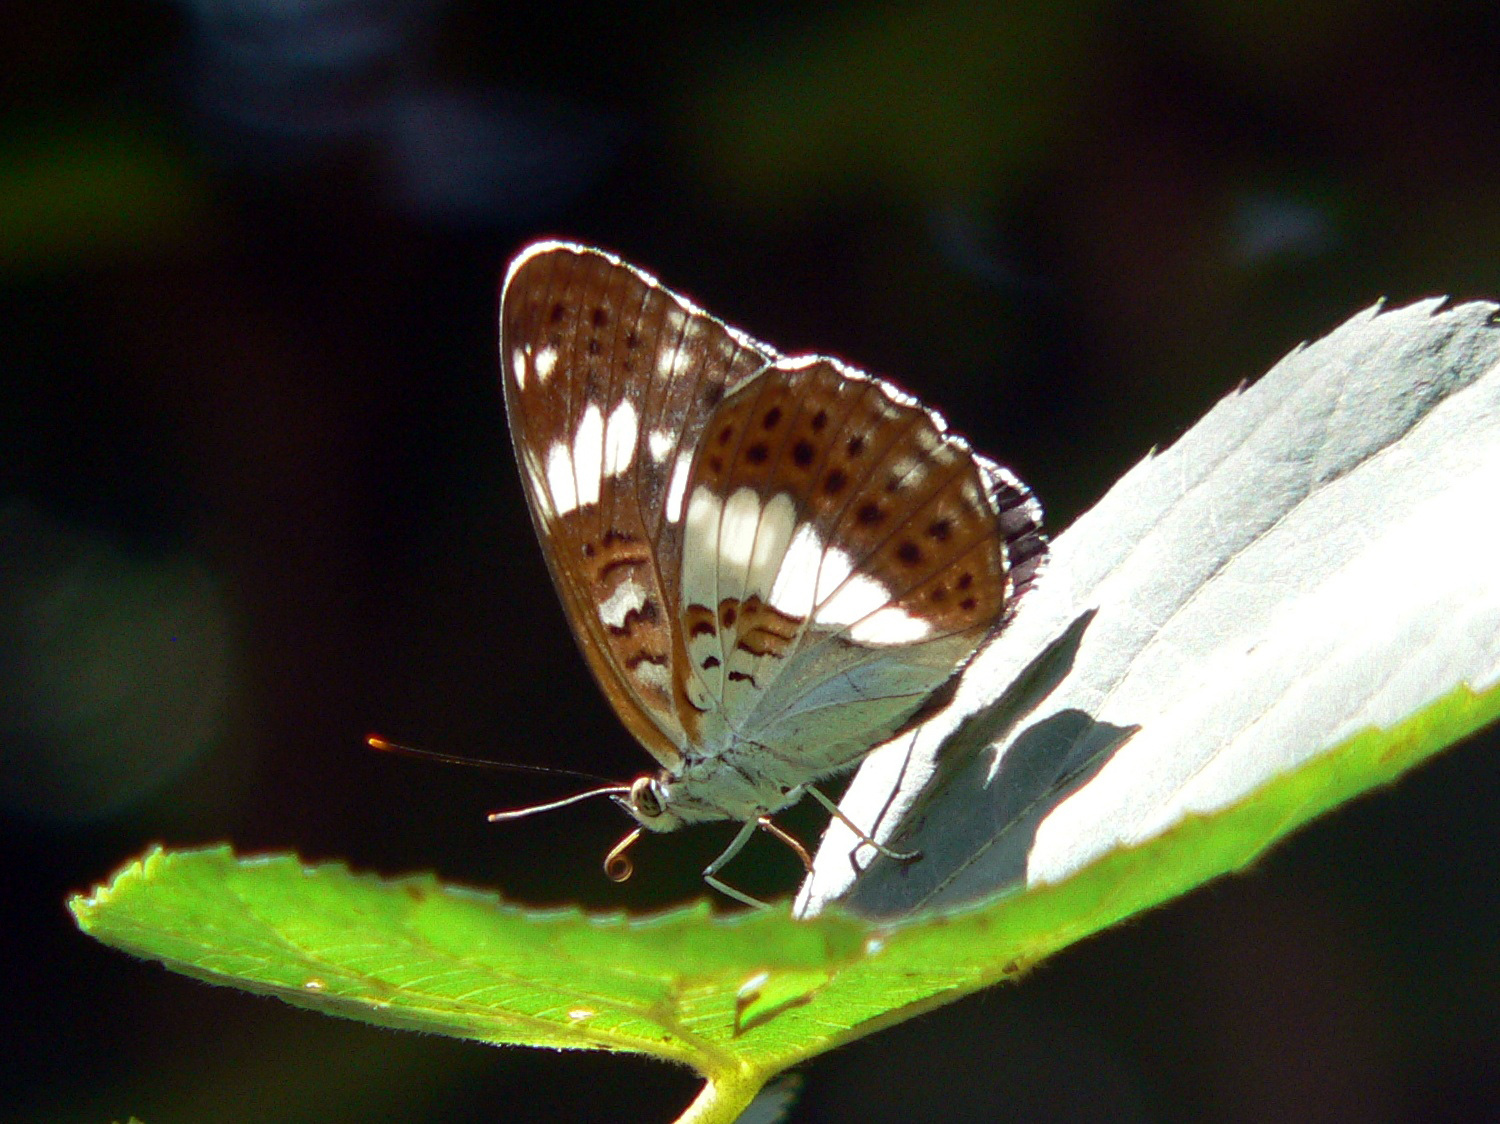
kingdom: Animalia
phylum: Arthropoda
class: Insecta
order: Lepidoptera
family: Nymphalidae
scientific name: Nymphalidae
